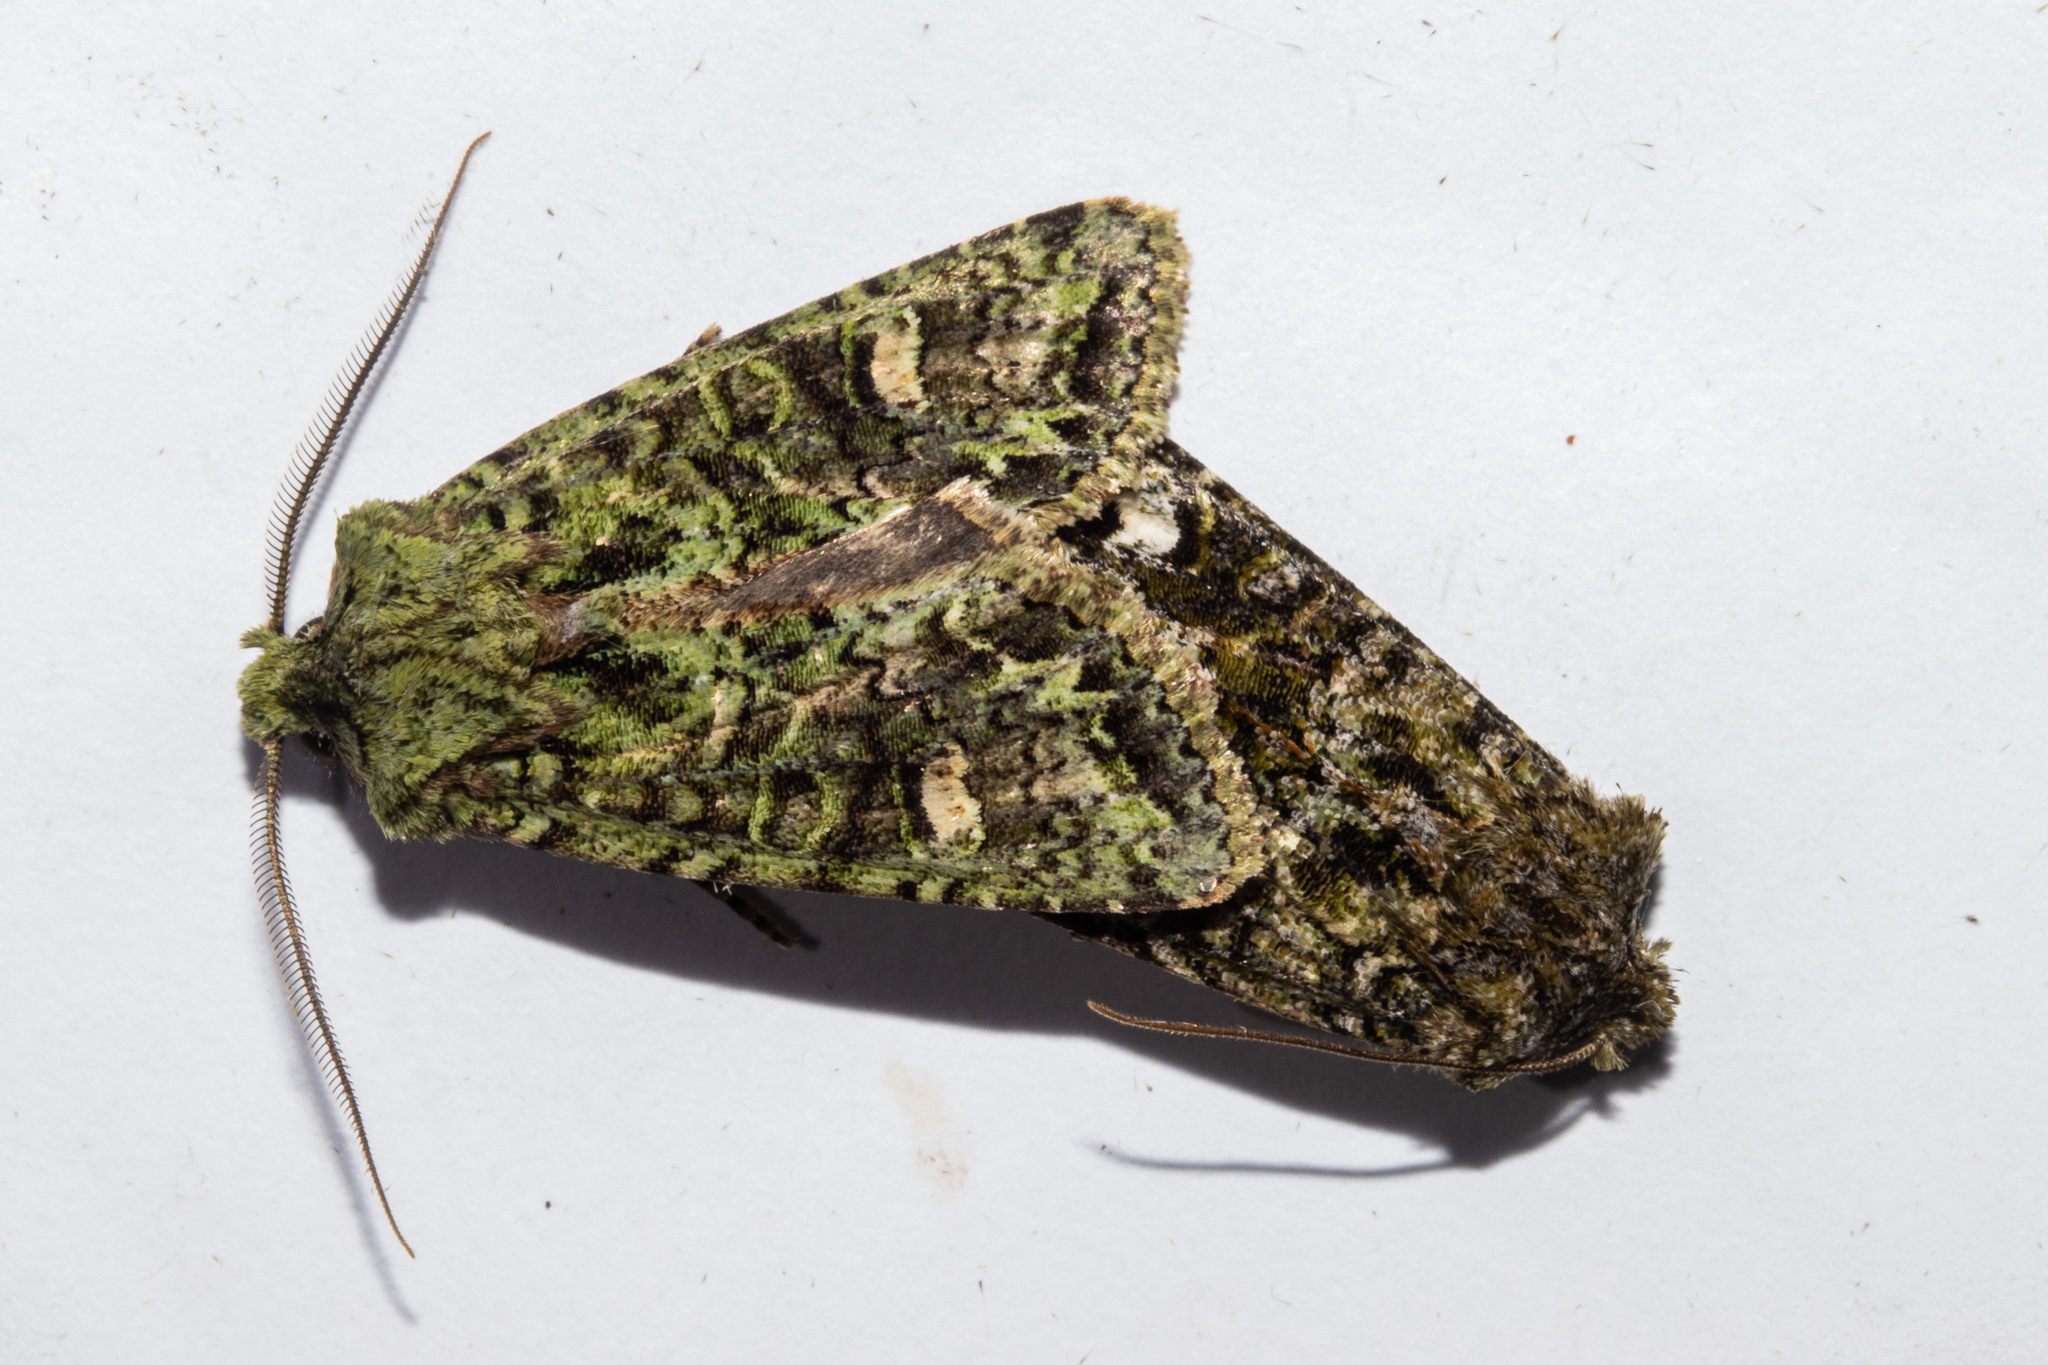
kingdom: Animalia
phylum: Arthropoda
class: Insecta
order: Lepidoptera
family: Noctuidae
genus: Ichneutica
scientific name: Ichneutica
